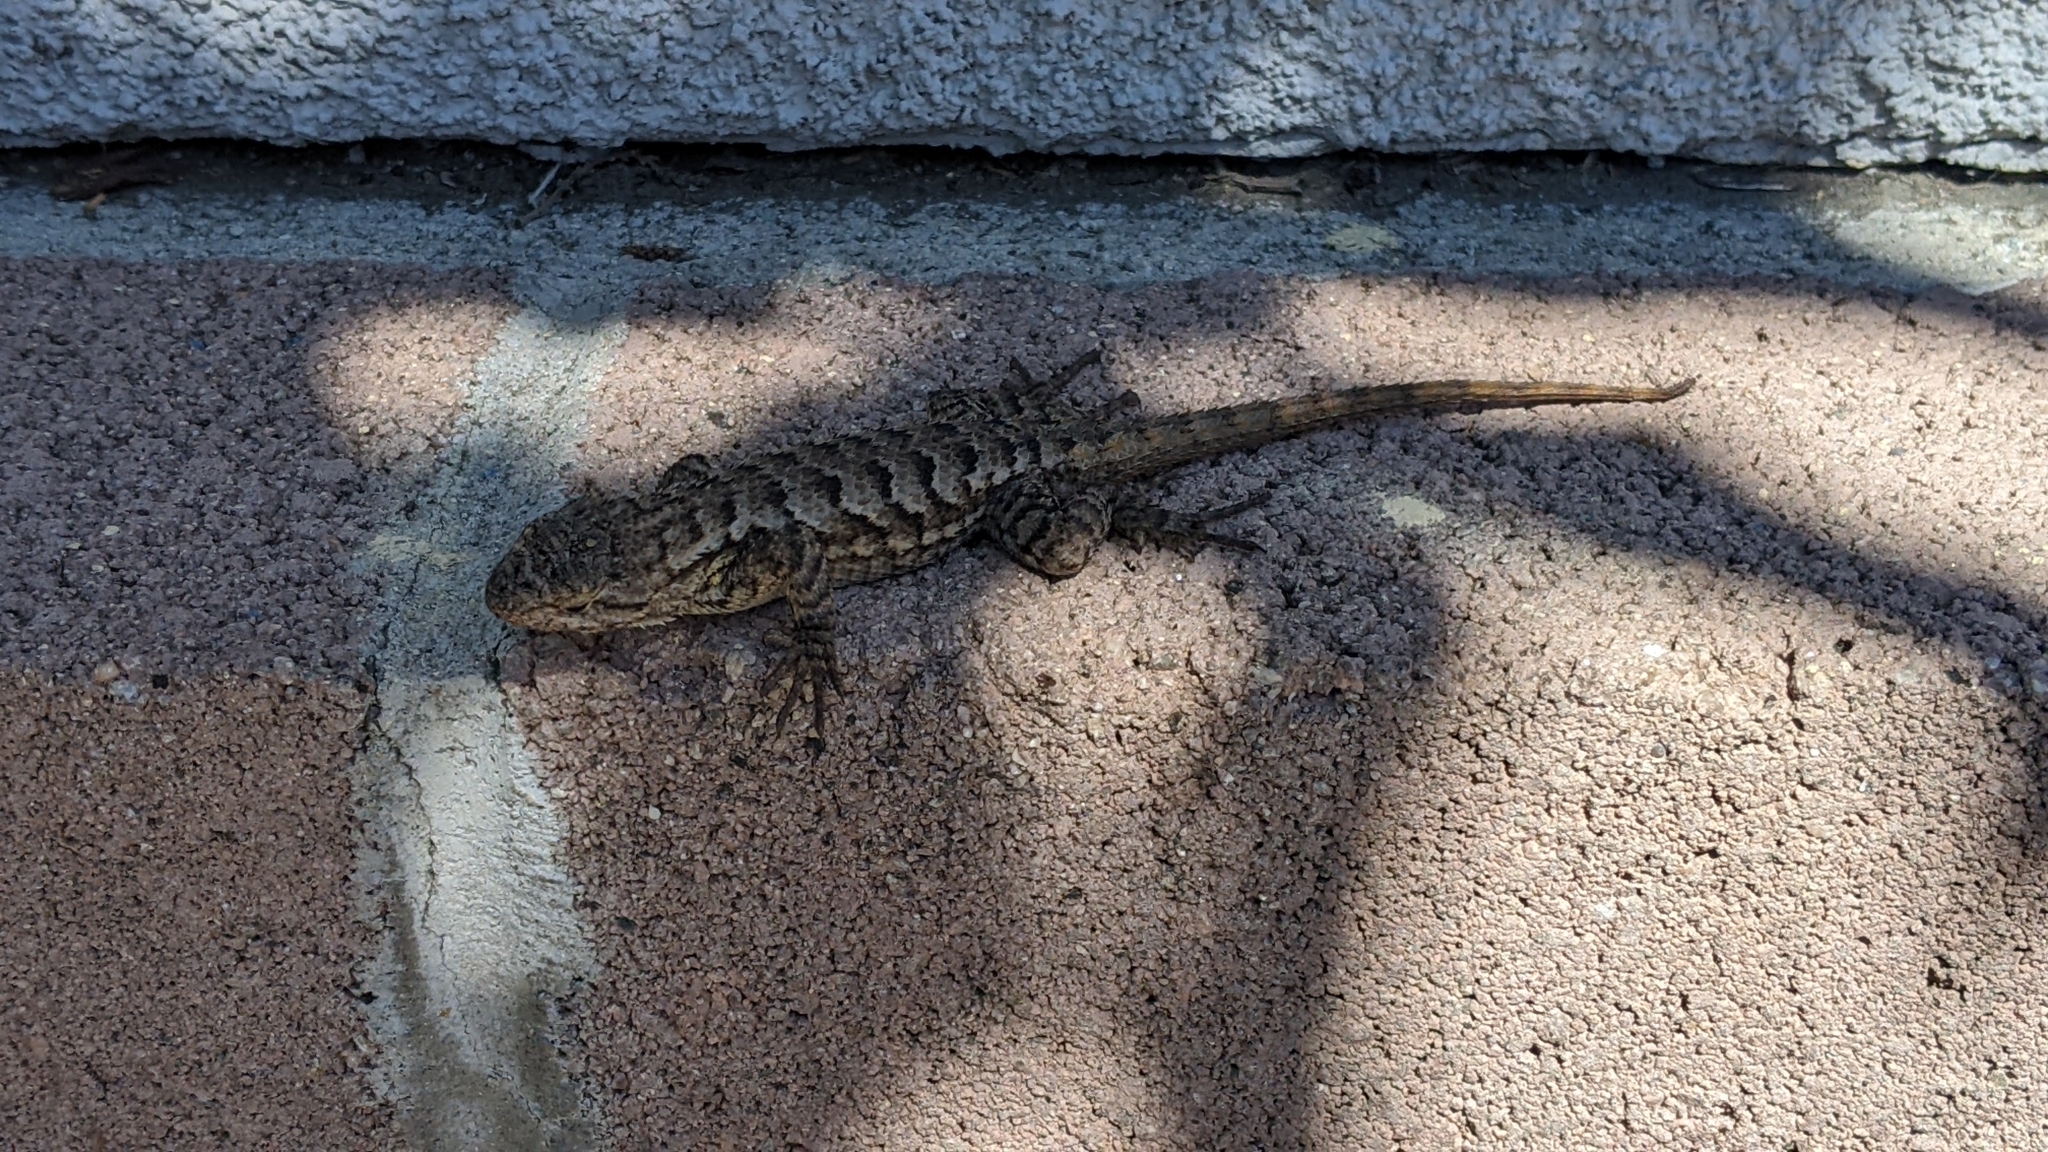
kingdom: Animalia
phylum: Chordata
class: Squamata
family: Phrynosomatidae
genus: Sceloporus
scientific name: Sceloporus occidentalis
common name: Western fence lizard
